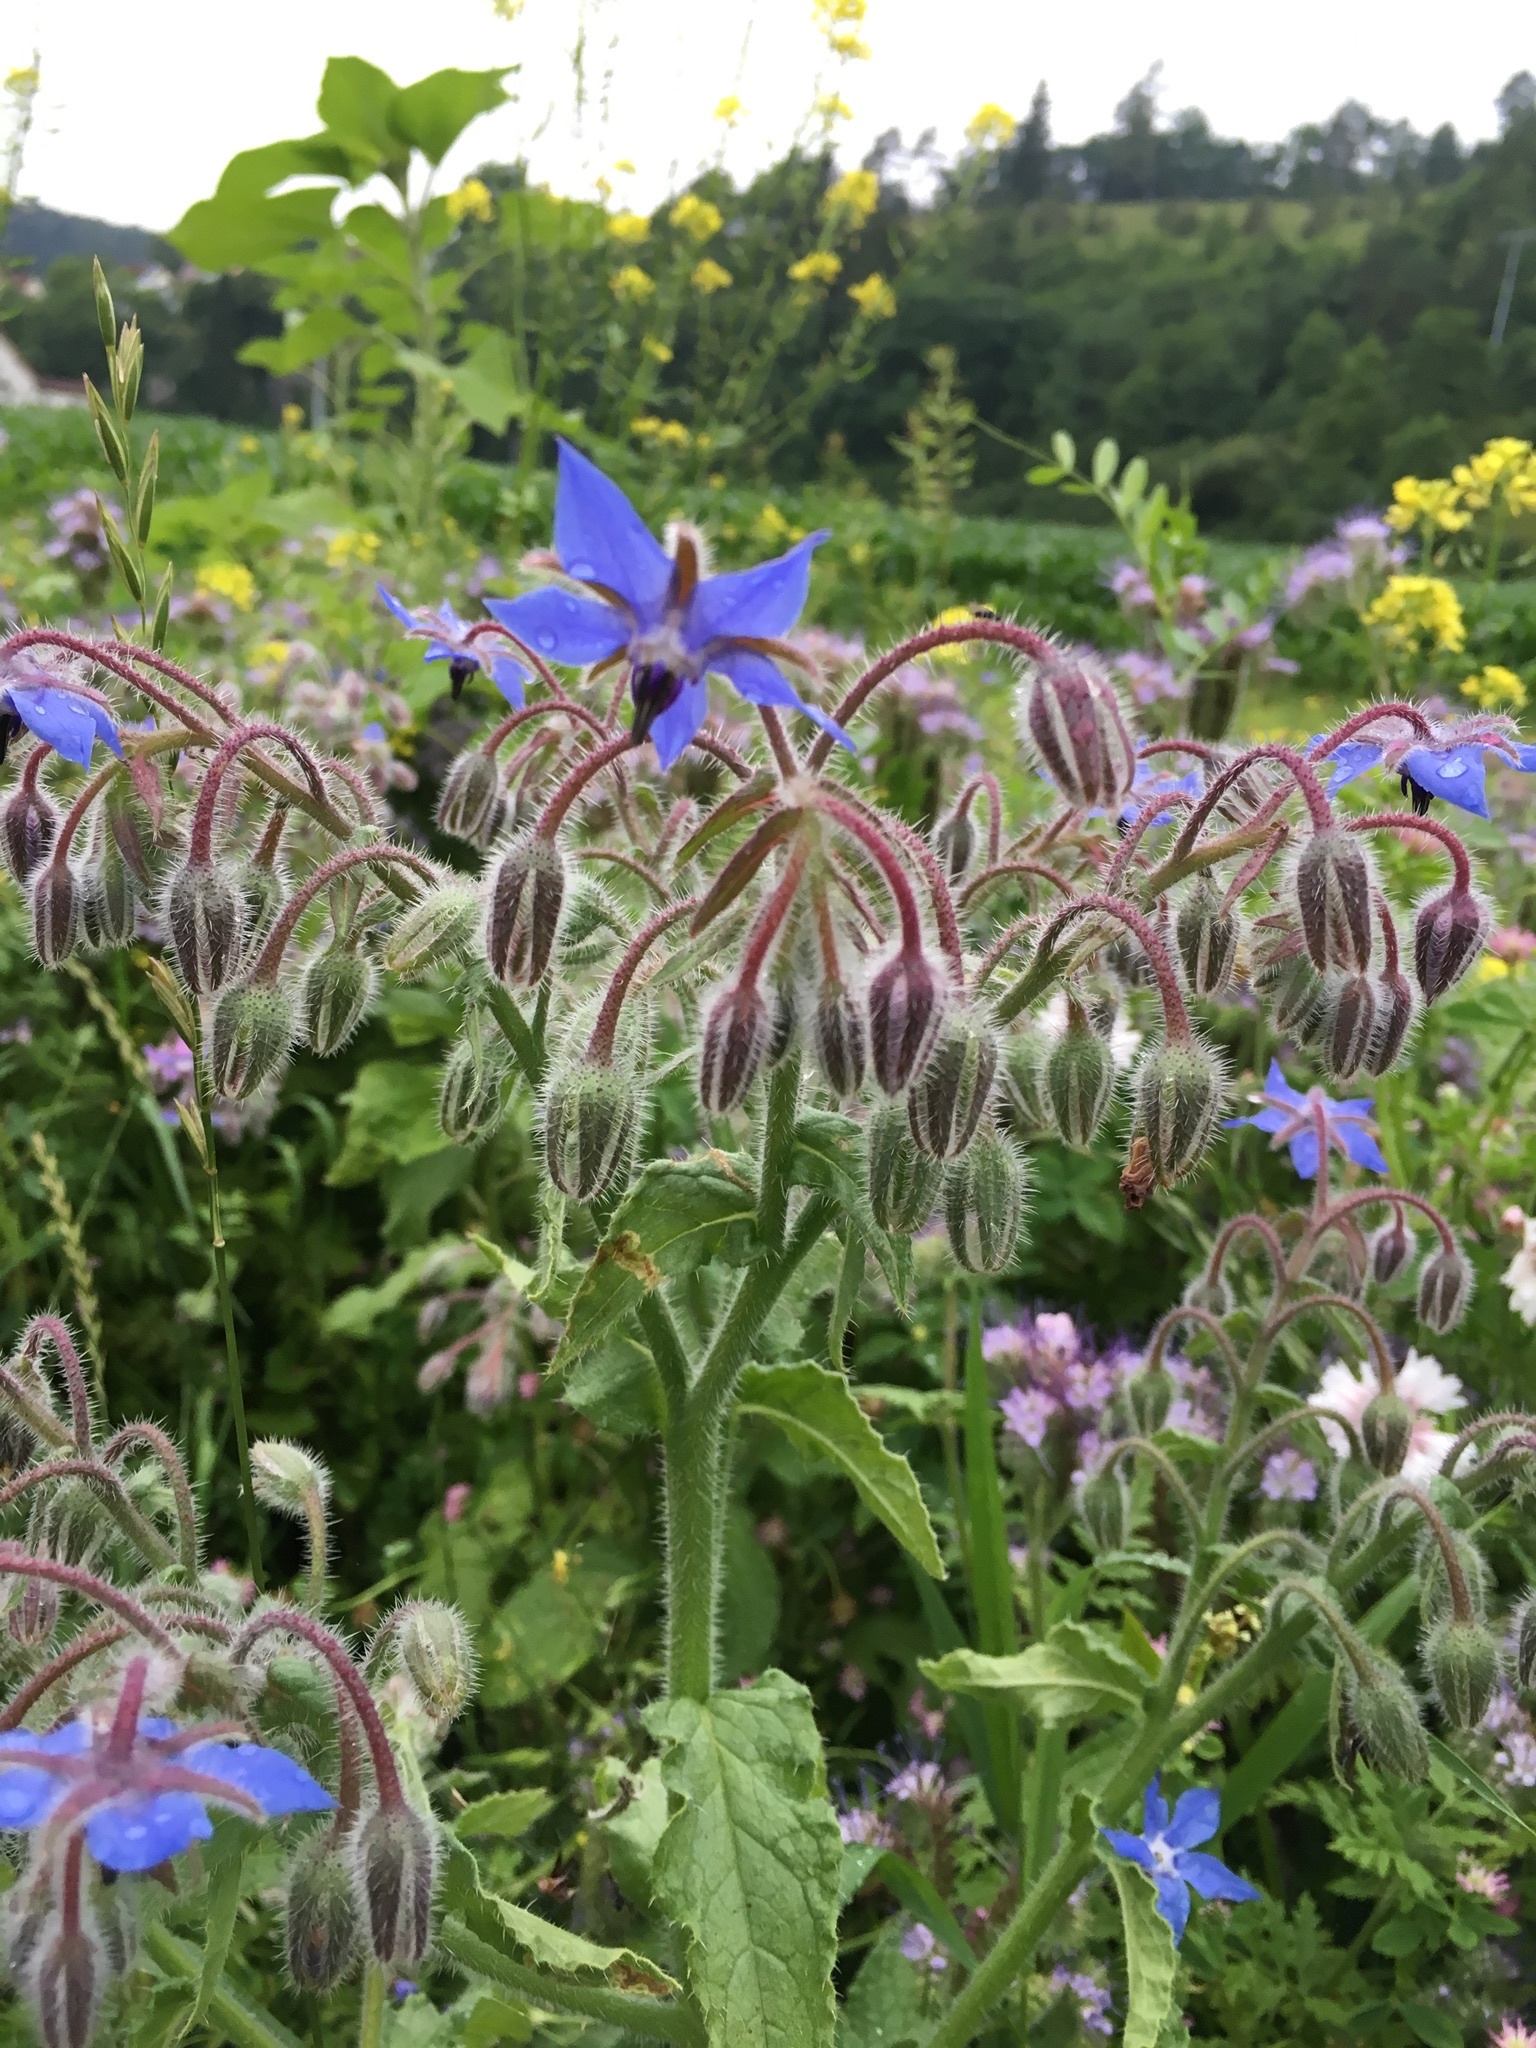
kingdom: Plantae
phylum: Tracheophyta
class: Magnoliopsida
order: Boraginales
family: Boraginaceae
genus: Borago
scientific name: Borago officinalis
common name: Borage
